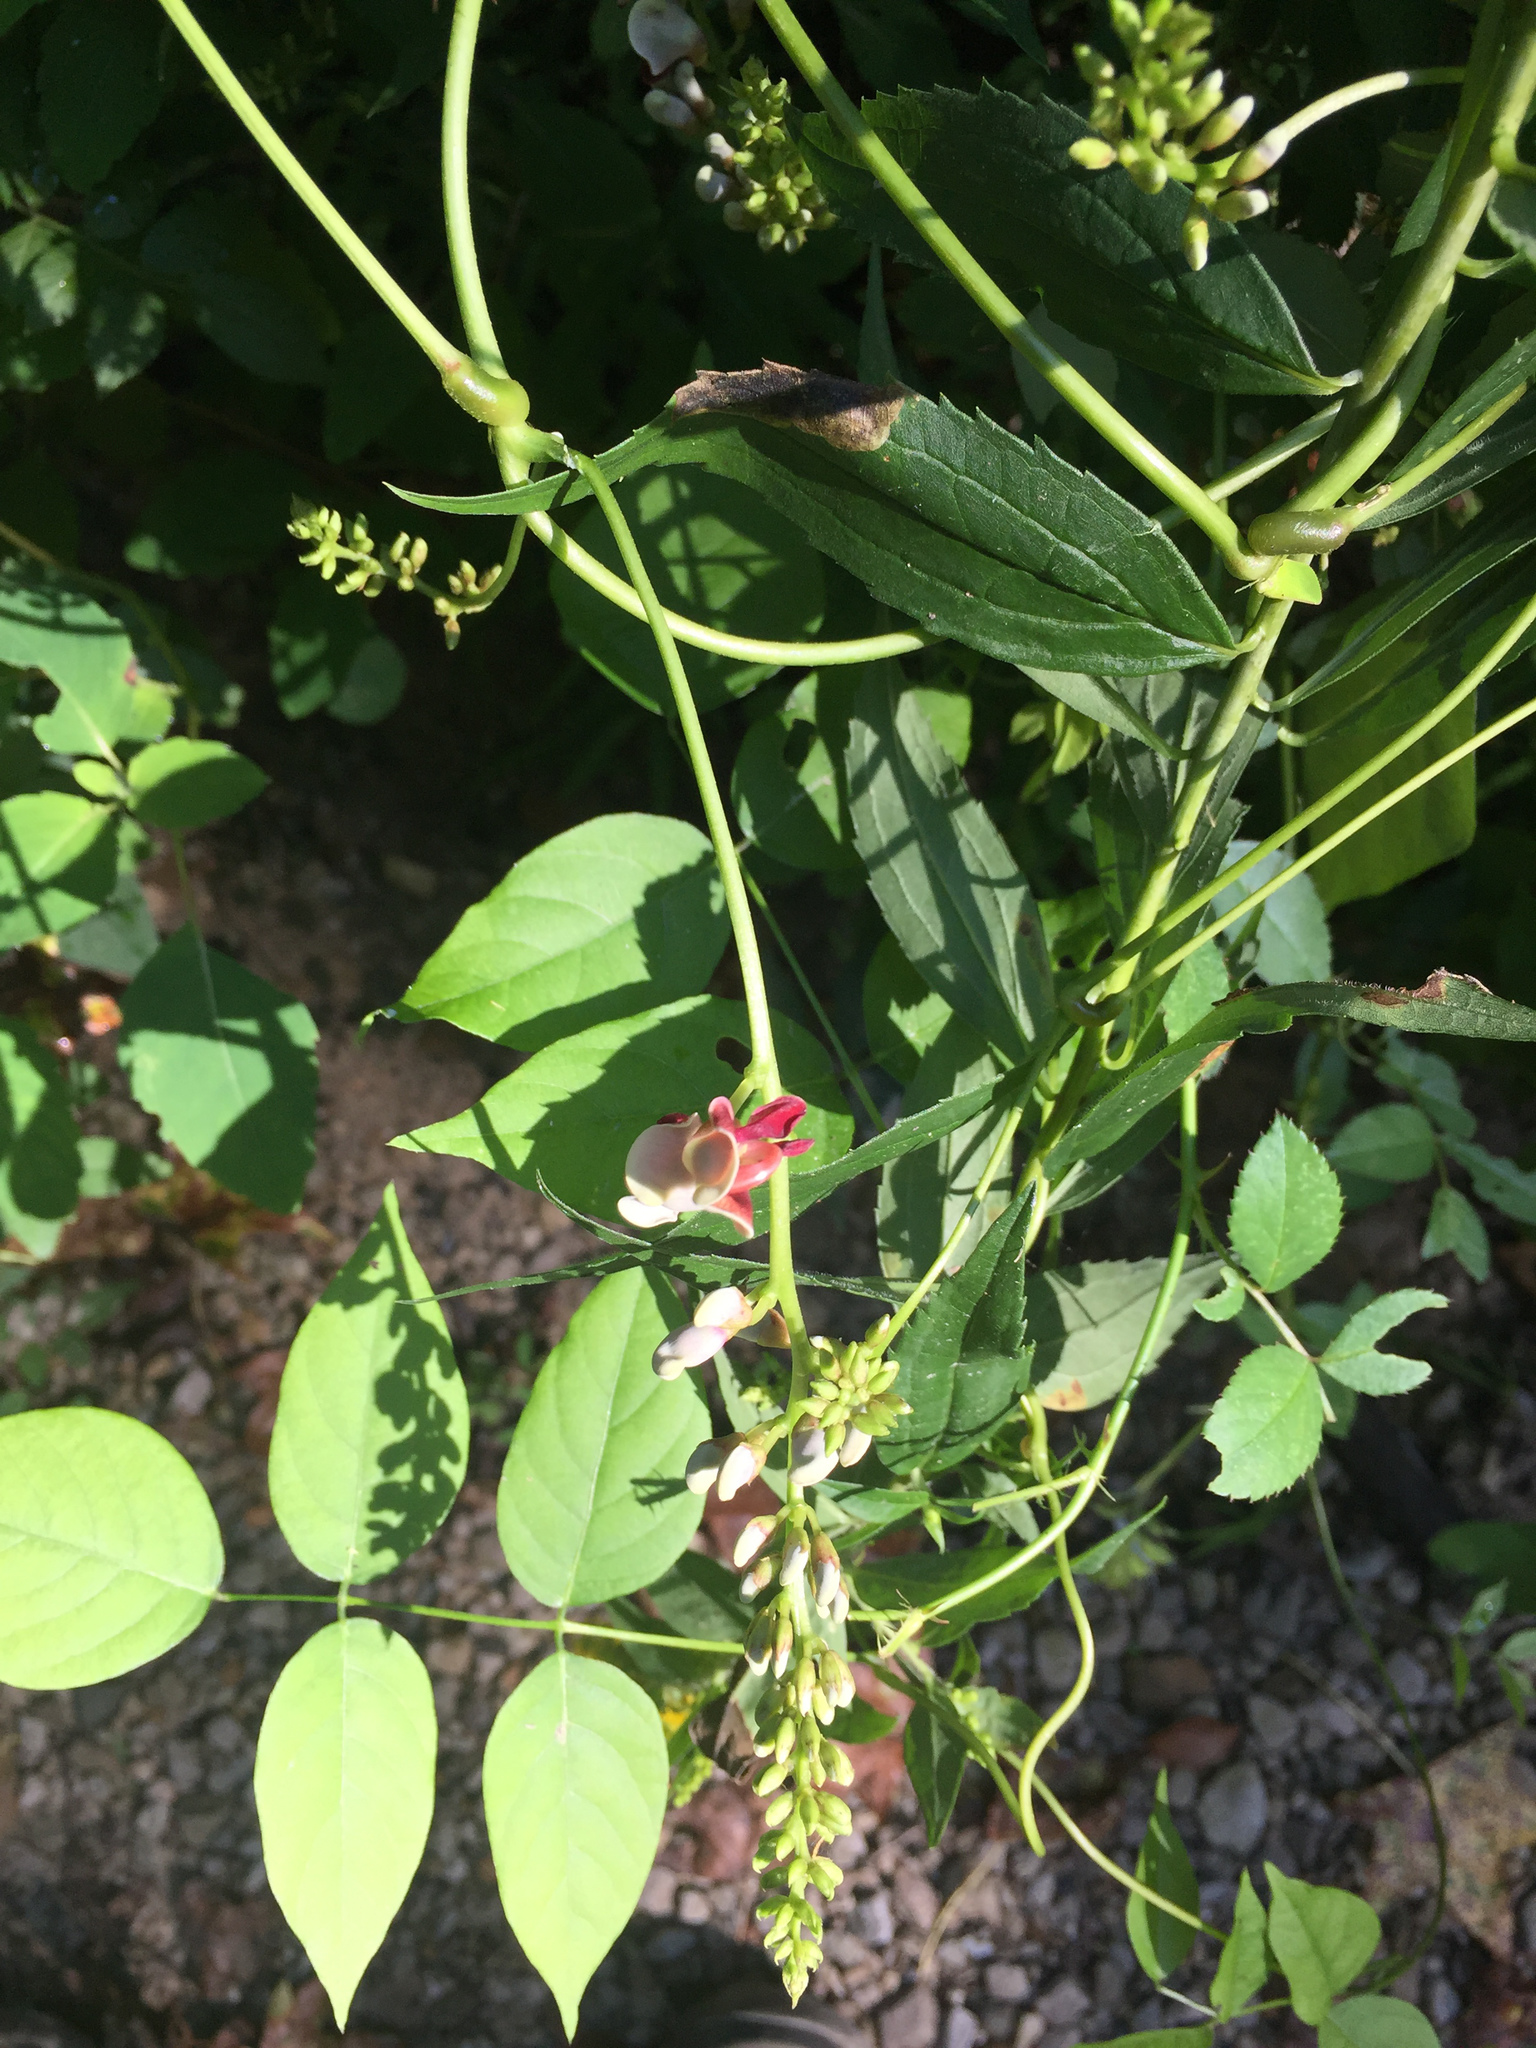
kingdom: Plantae
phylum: Tracheophyta
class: Magnoliopsida
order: Fabales
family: Fabaceae
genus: Apios
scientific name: Apios americana
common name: American potato-bean
